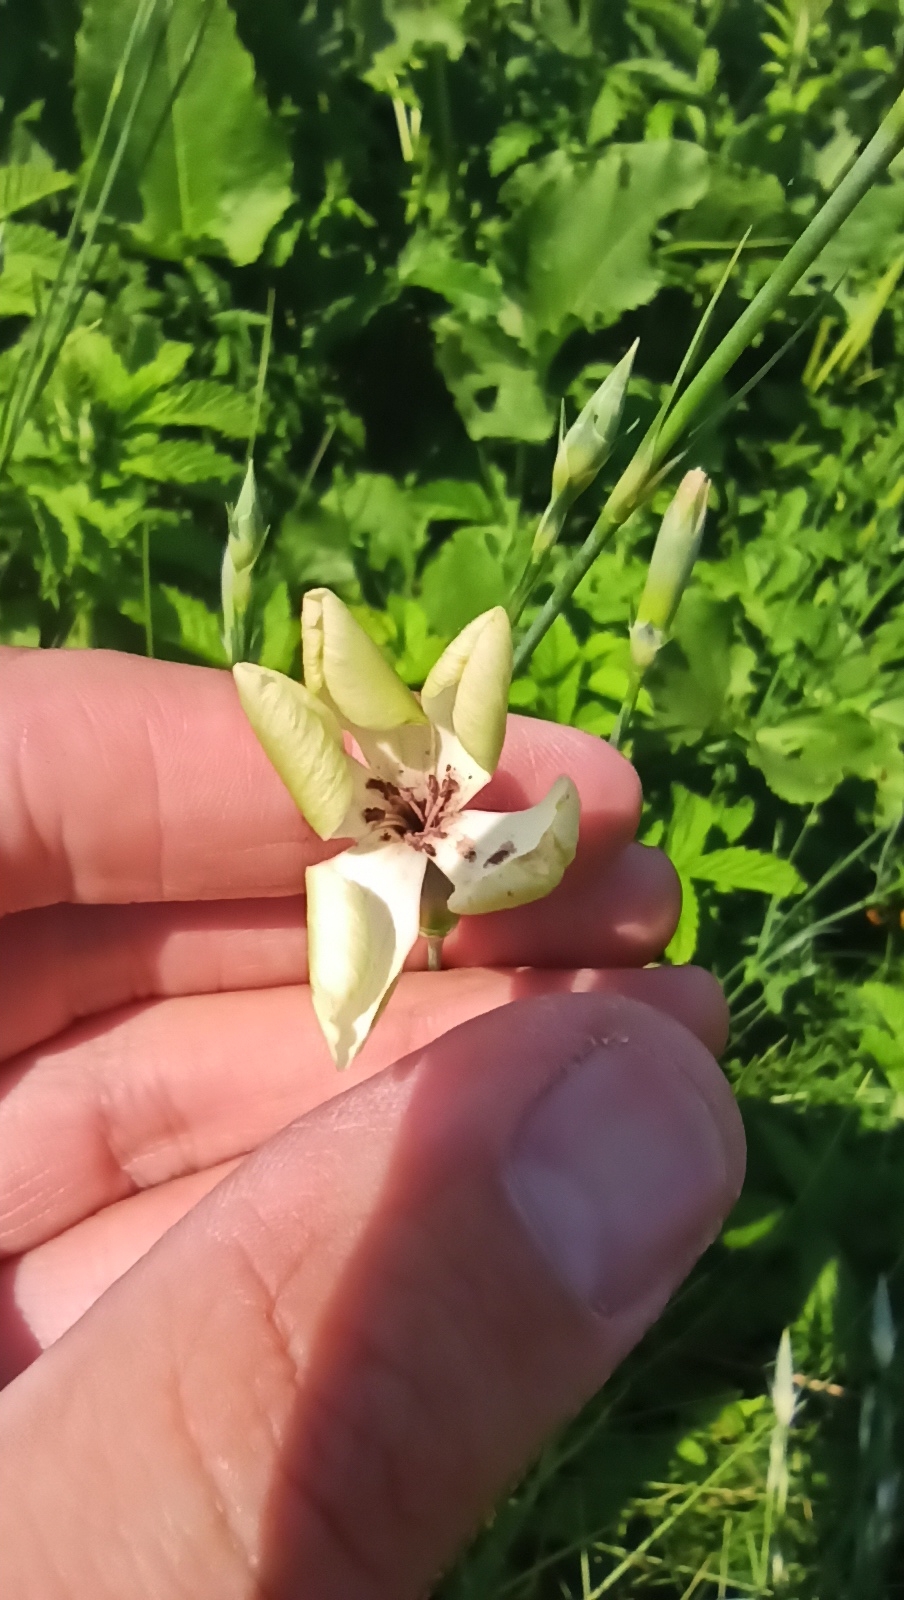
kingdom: Plantae
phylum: Tracheophyta
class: Magnoliopsida
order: Caryophyllales
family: Caryophyllaceae
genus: Dianthus
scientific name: Dianthus lanceolatus
